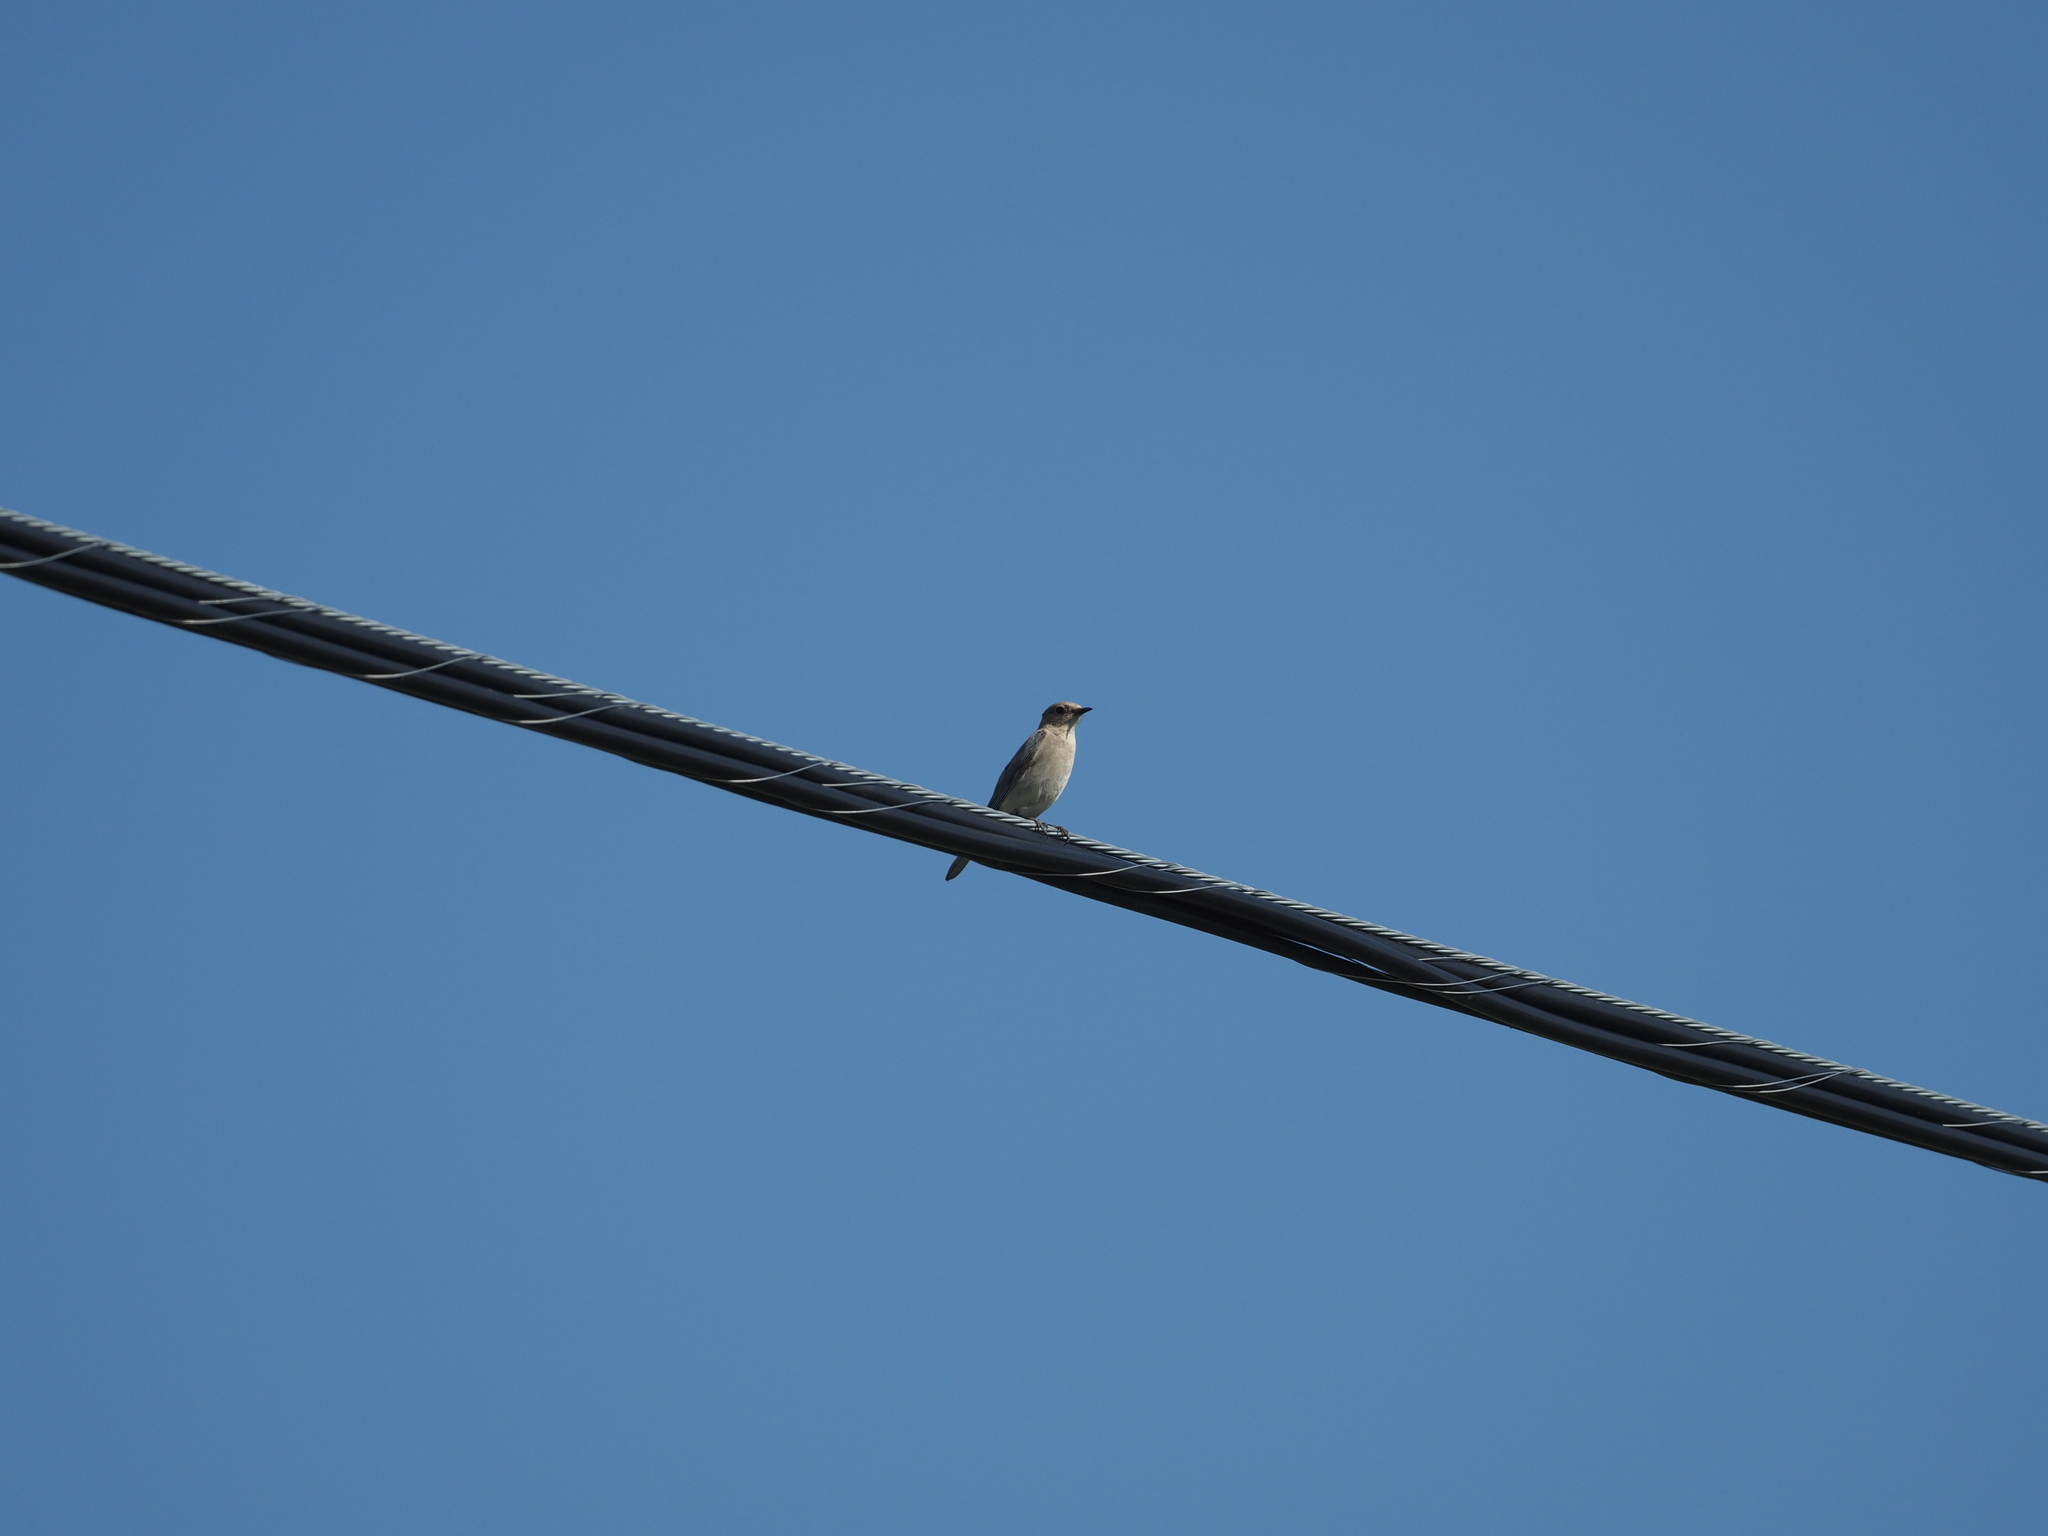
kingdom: Animalia
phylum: Chordata
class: Aves
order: Passeriformes
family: Turdidae
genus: Sialia
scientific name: Sialia currucoides
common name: Mountain bluebird
